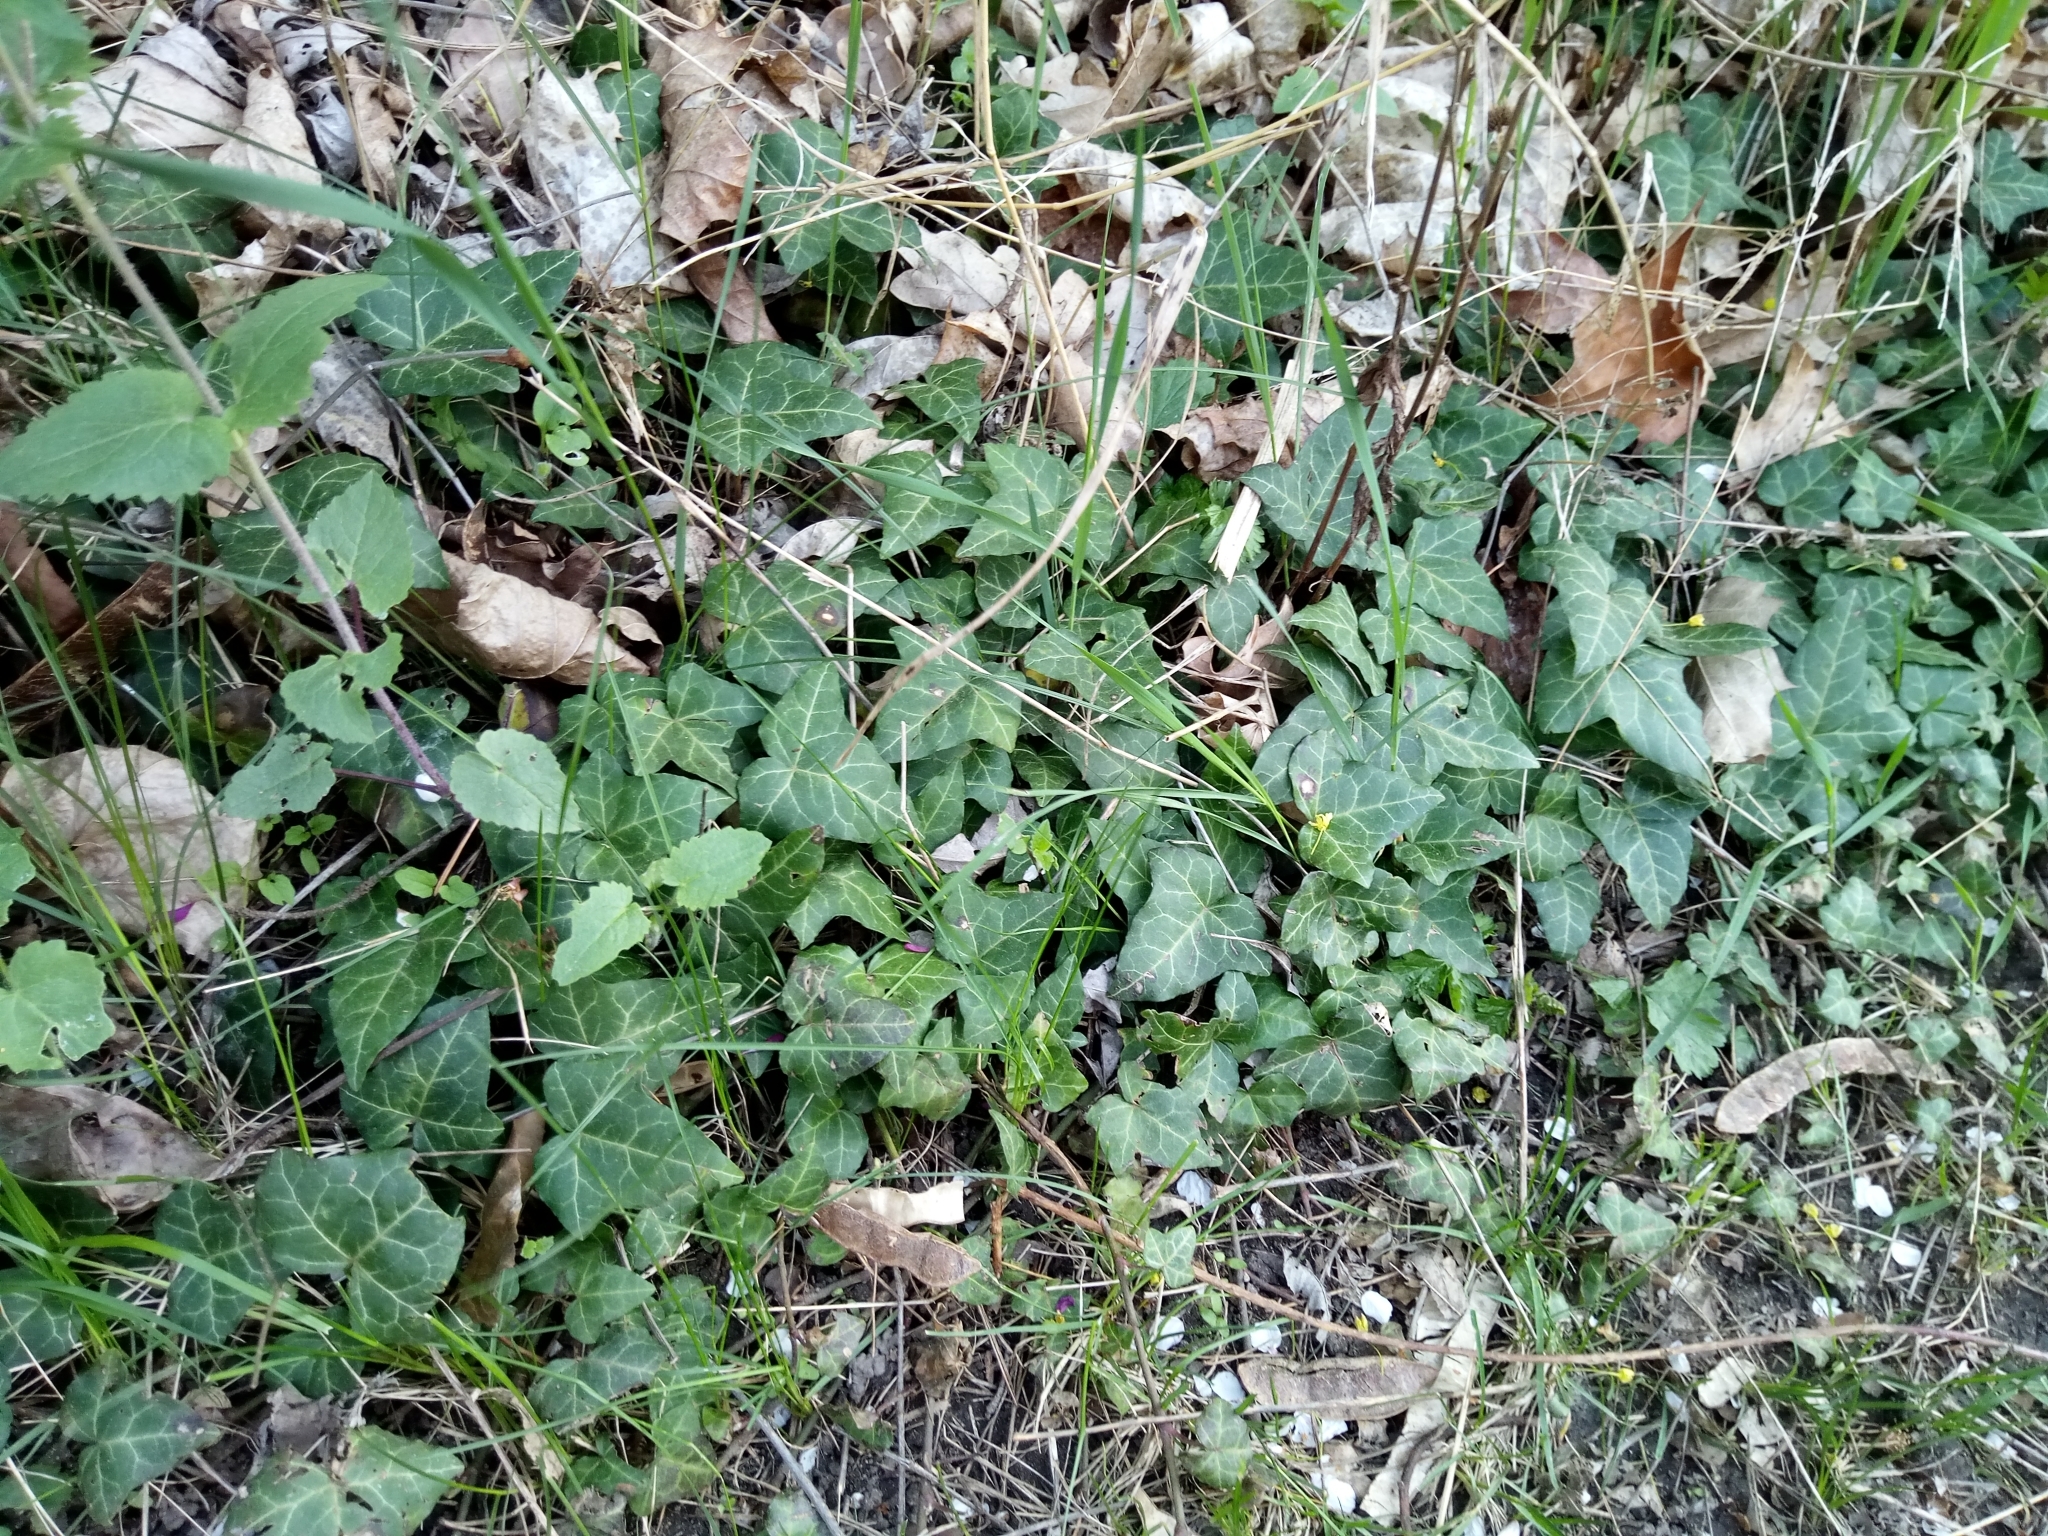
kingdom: Plantae
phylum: Tracheophyta
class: Magnoliopsida
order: Apiales
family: Araliaceae
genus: Hedera
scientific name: Hedera helix
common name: Ivy
